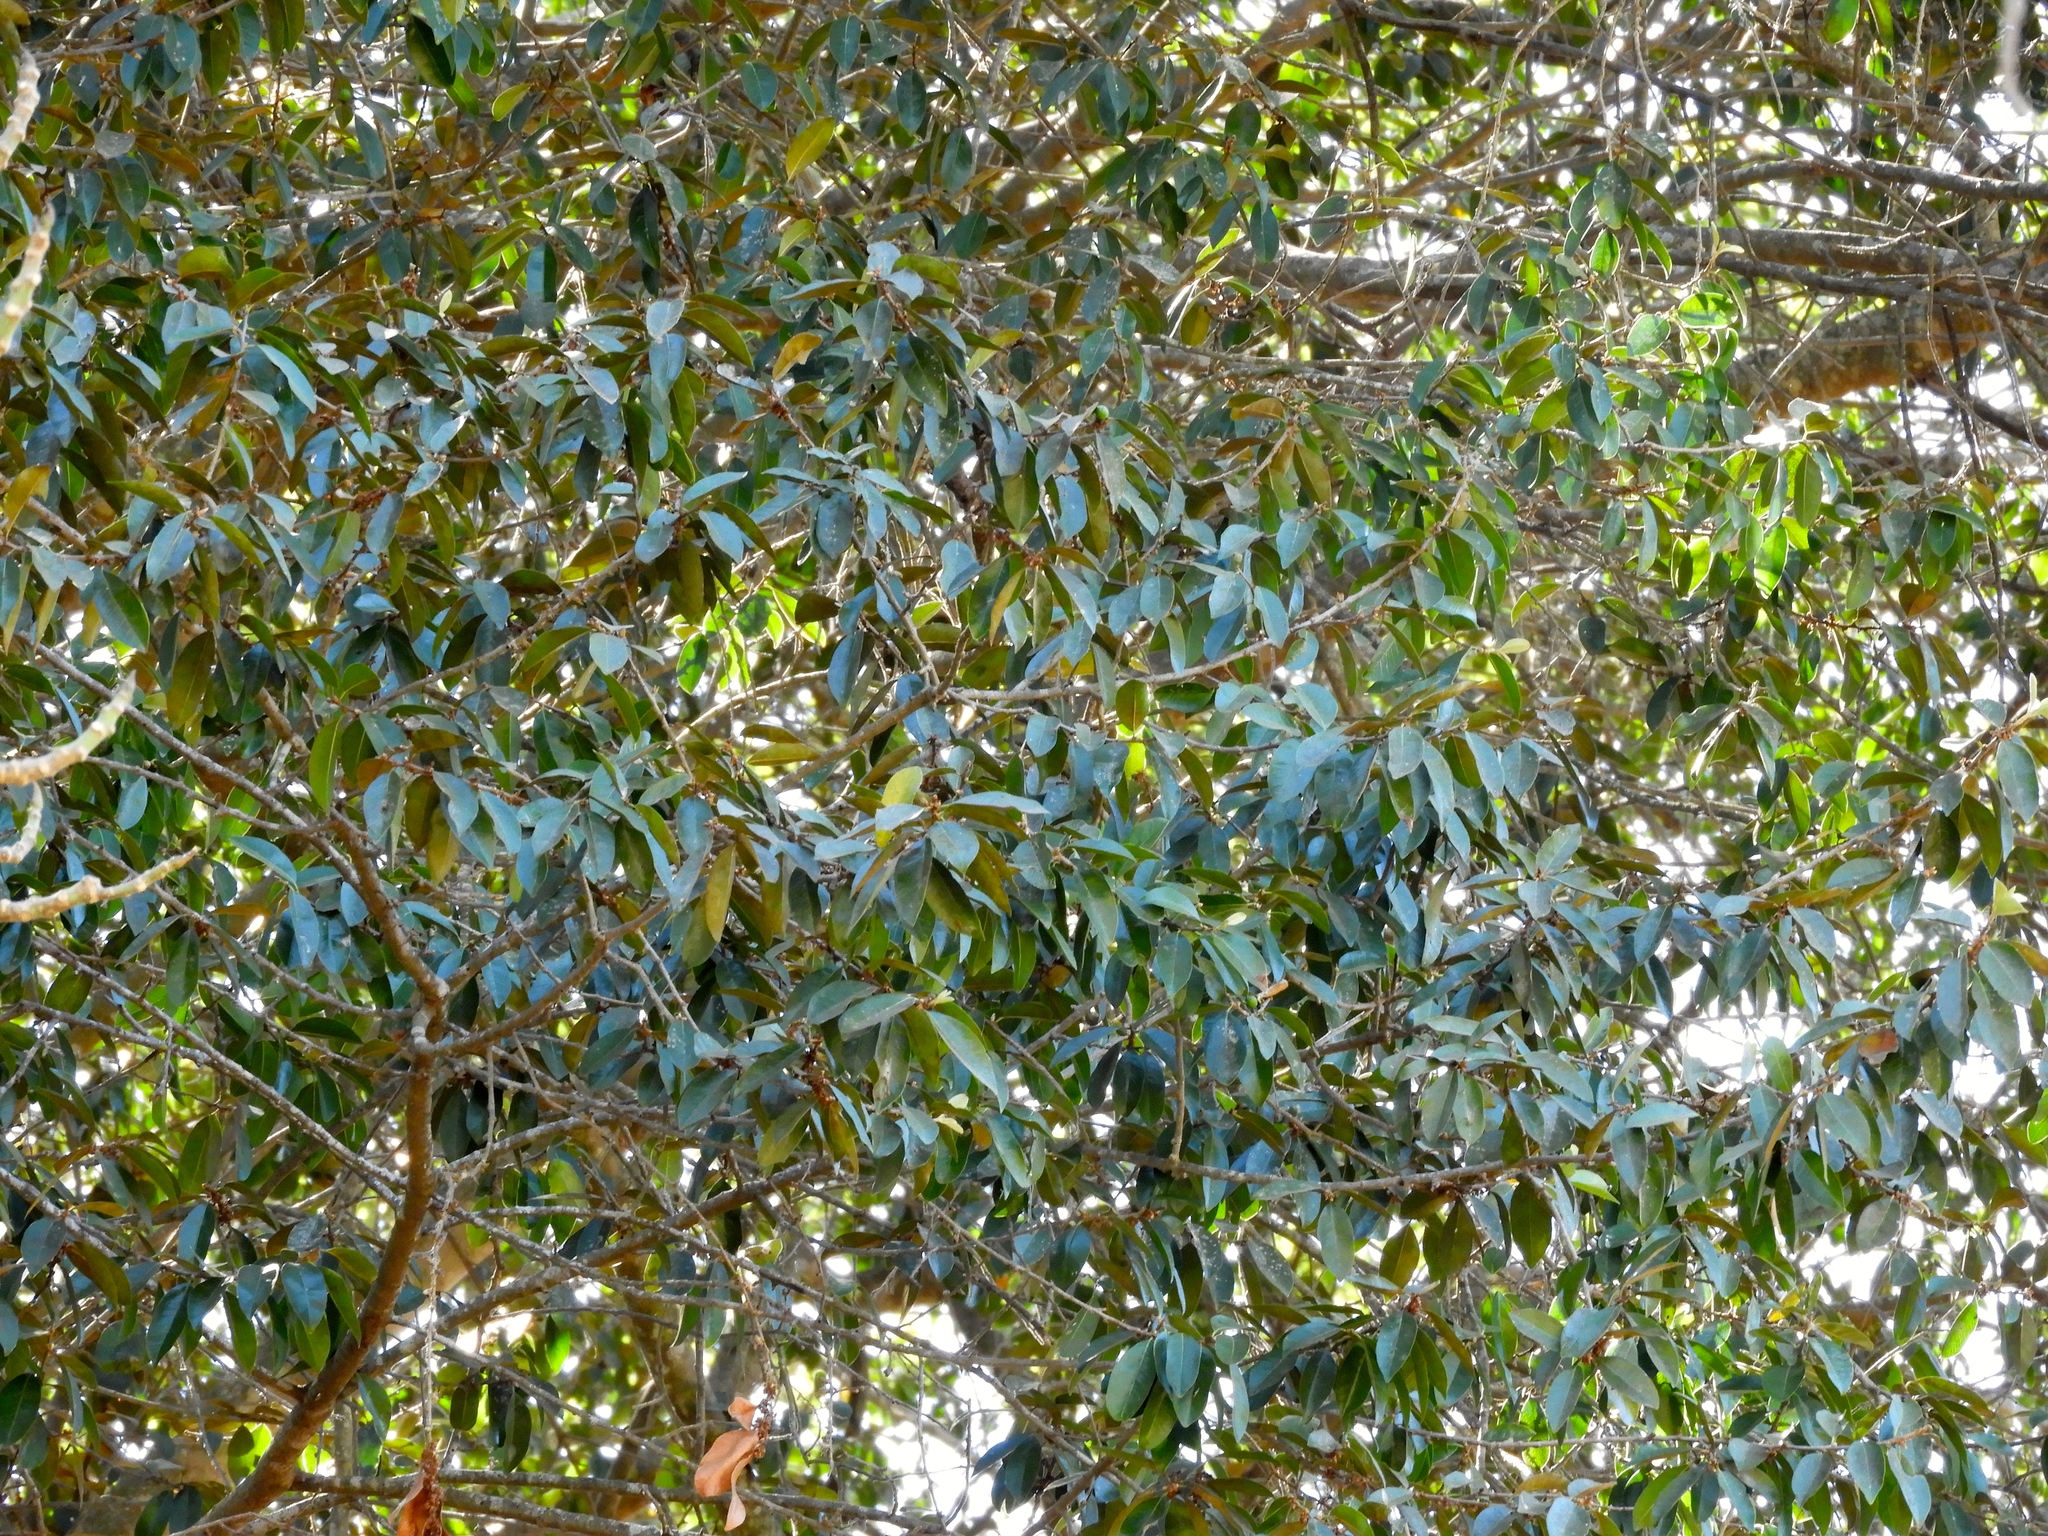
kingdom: Plantae
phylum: Tracheophyta
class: Magnoliopsida
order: Ericales
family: Sapotaceae
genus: Sideroxylon
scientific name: Sideroxylon
